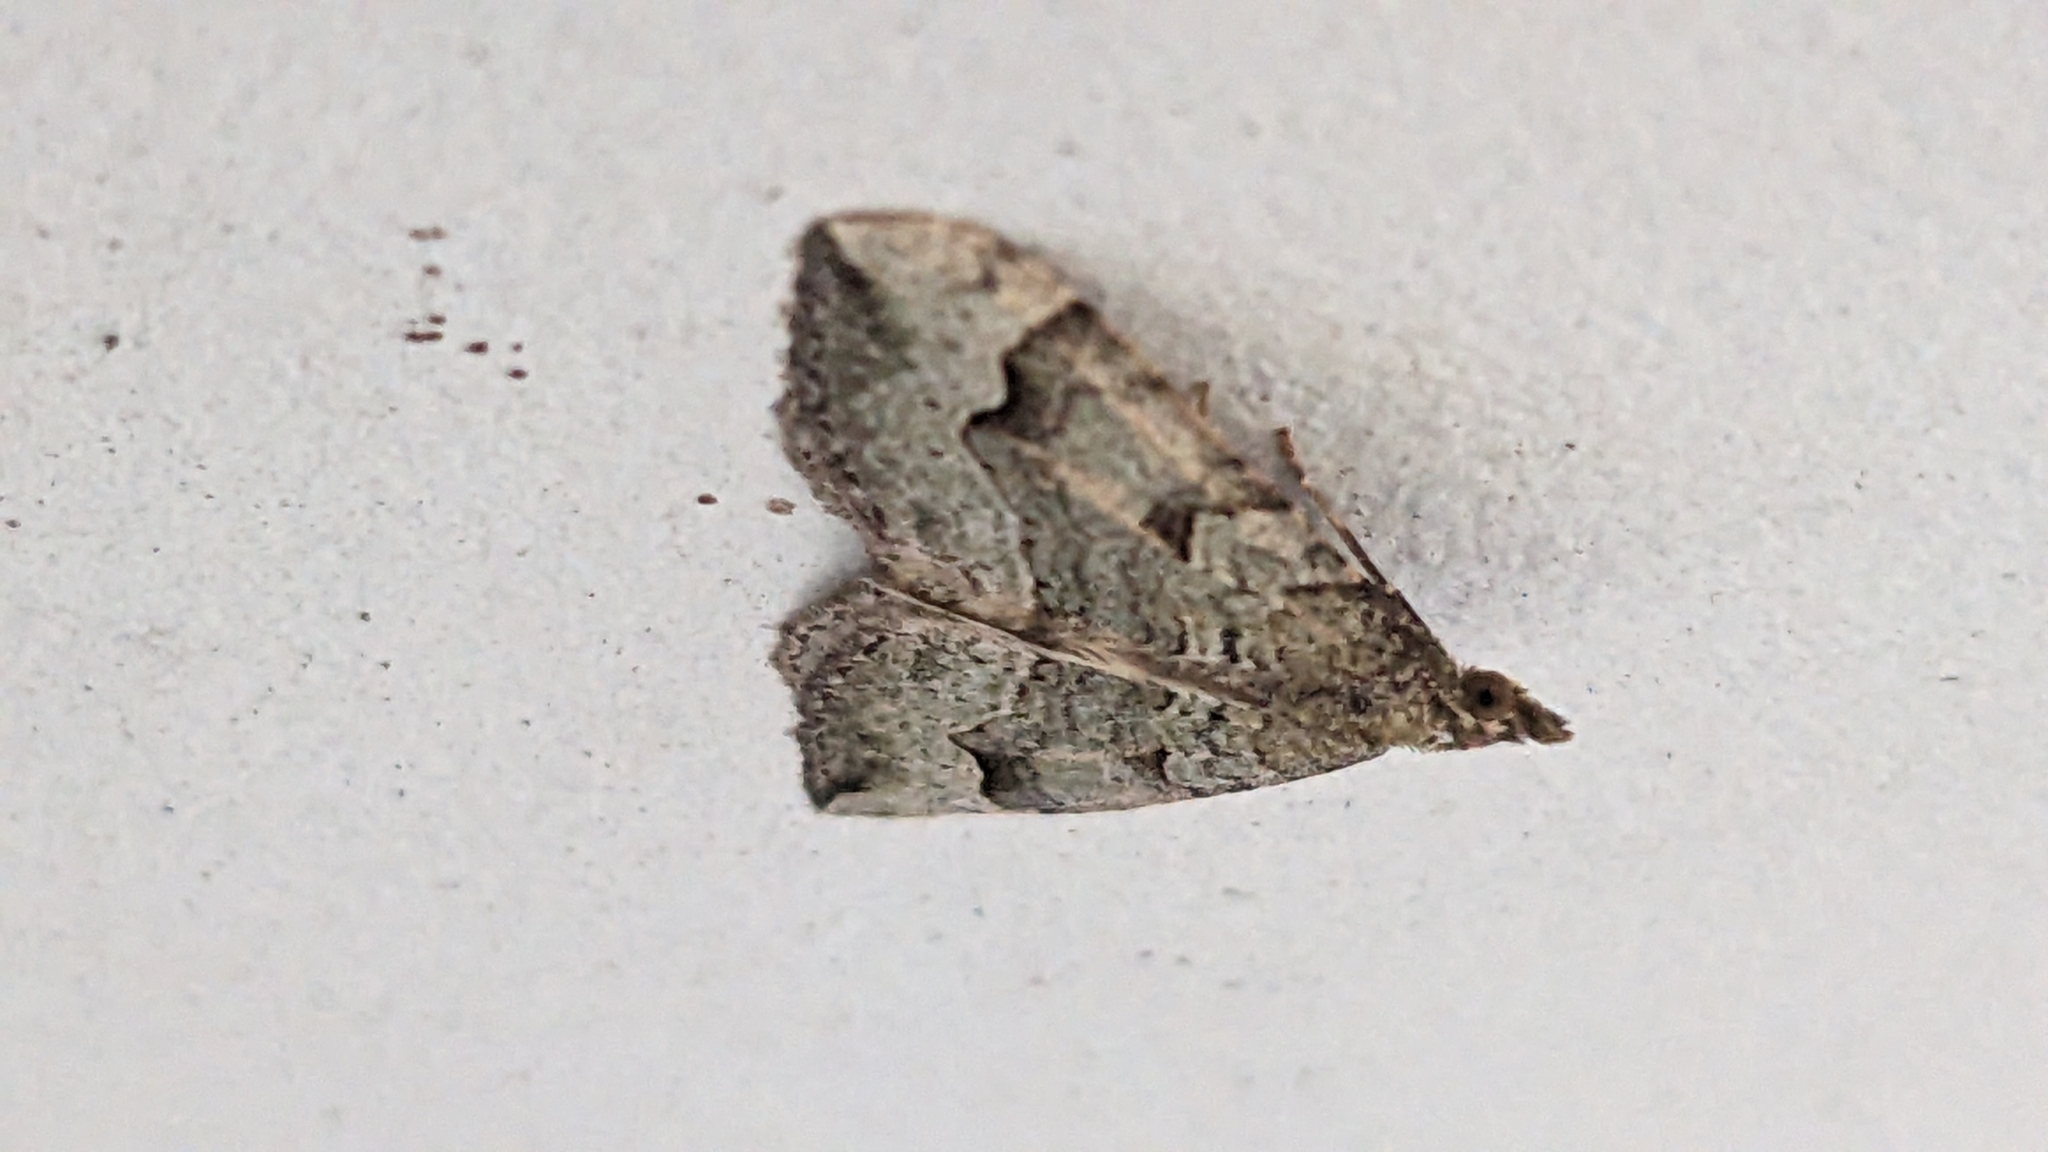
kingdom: Animalia
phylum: Arthropoda
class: Insecta
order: Lepidoptera
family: Geometridae
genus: Epyaxa
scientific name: Epyaxa rosearia
